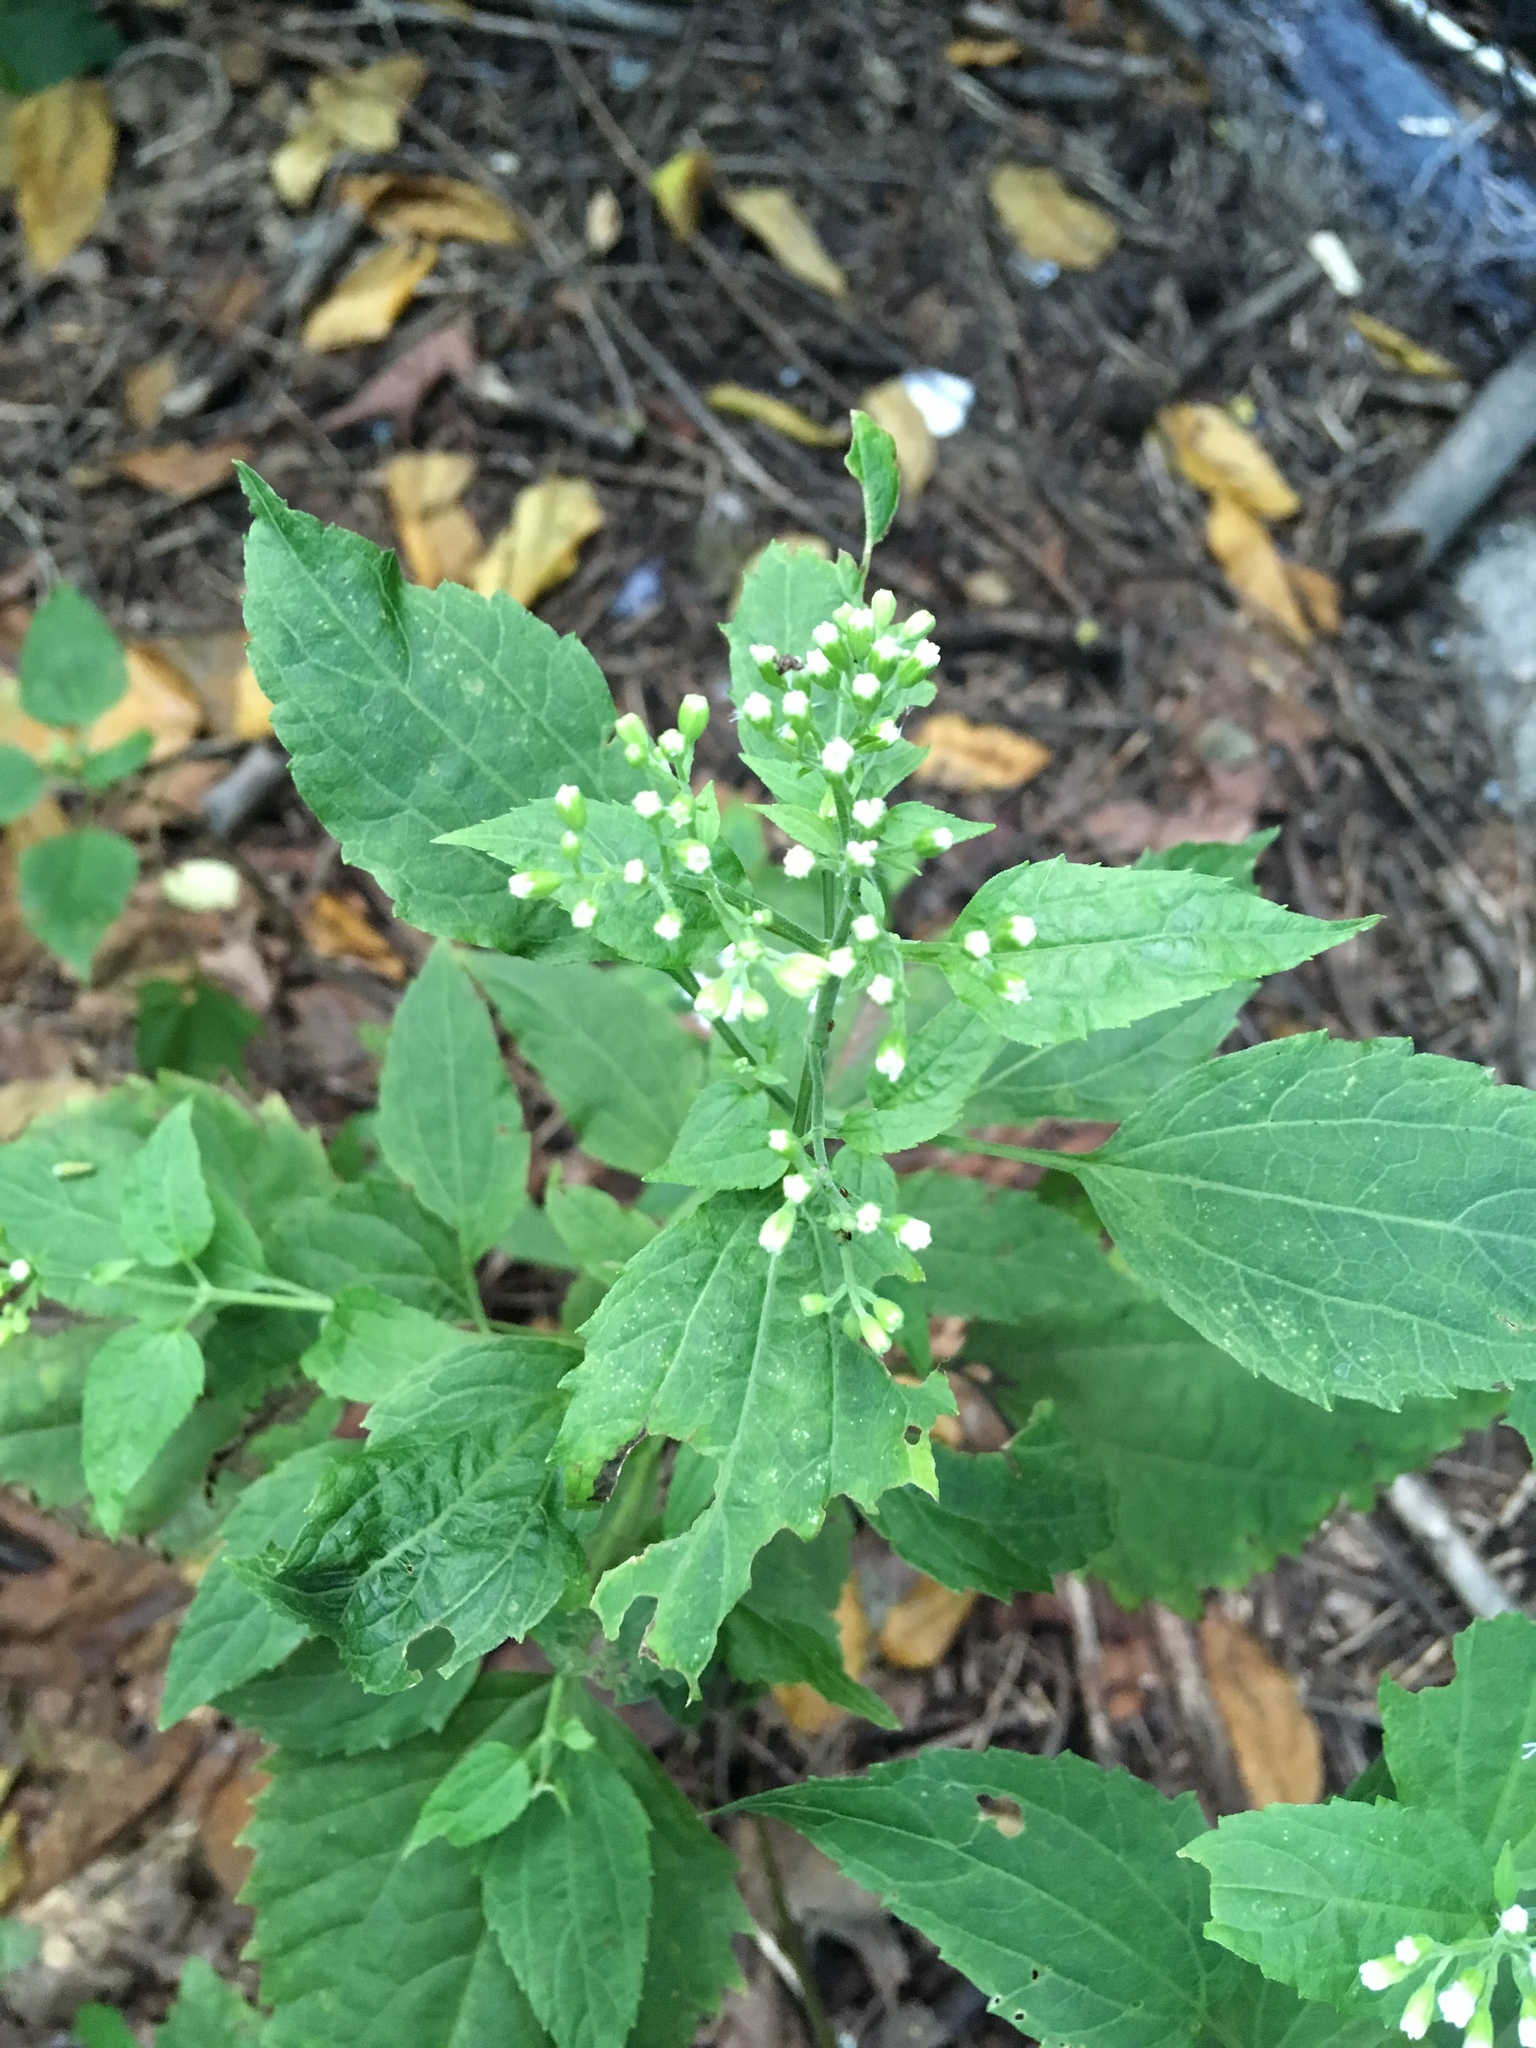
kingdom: Plantae
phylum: Tracheophyta
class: Magnoliopsida
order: Asterales
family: Asteraceae
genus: Ageratina
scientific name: Ageratina altissima
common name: White snakeroot
